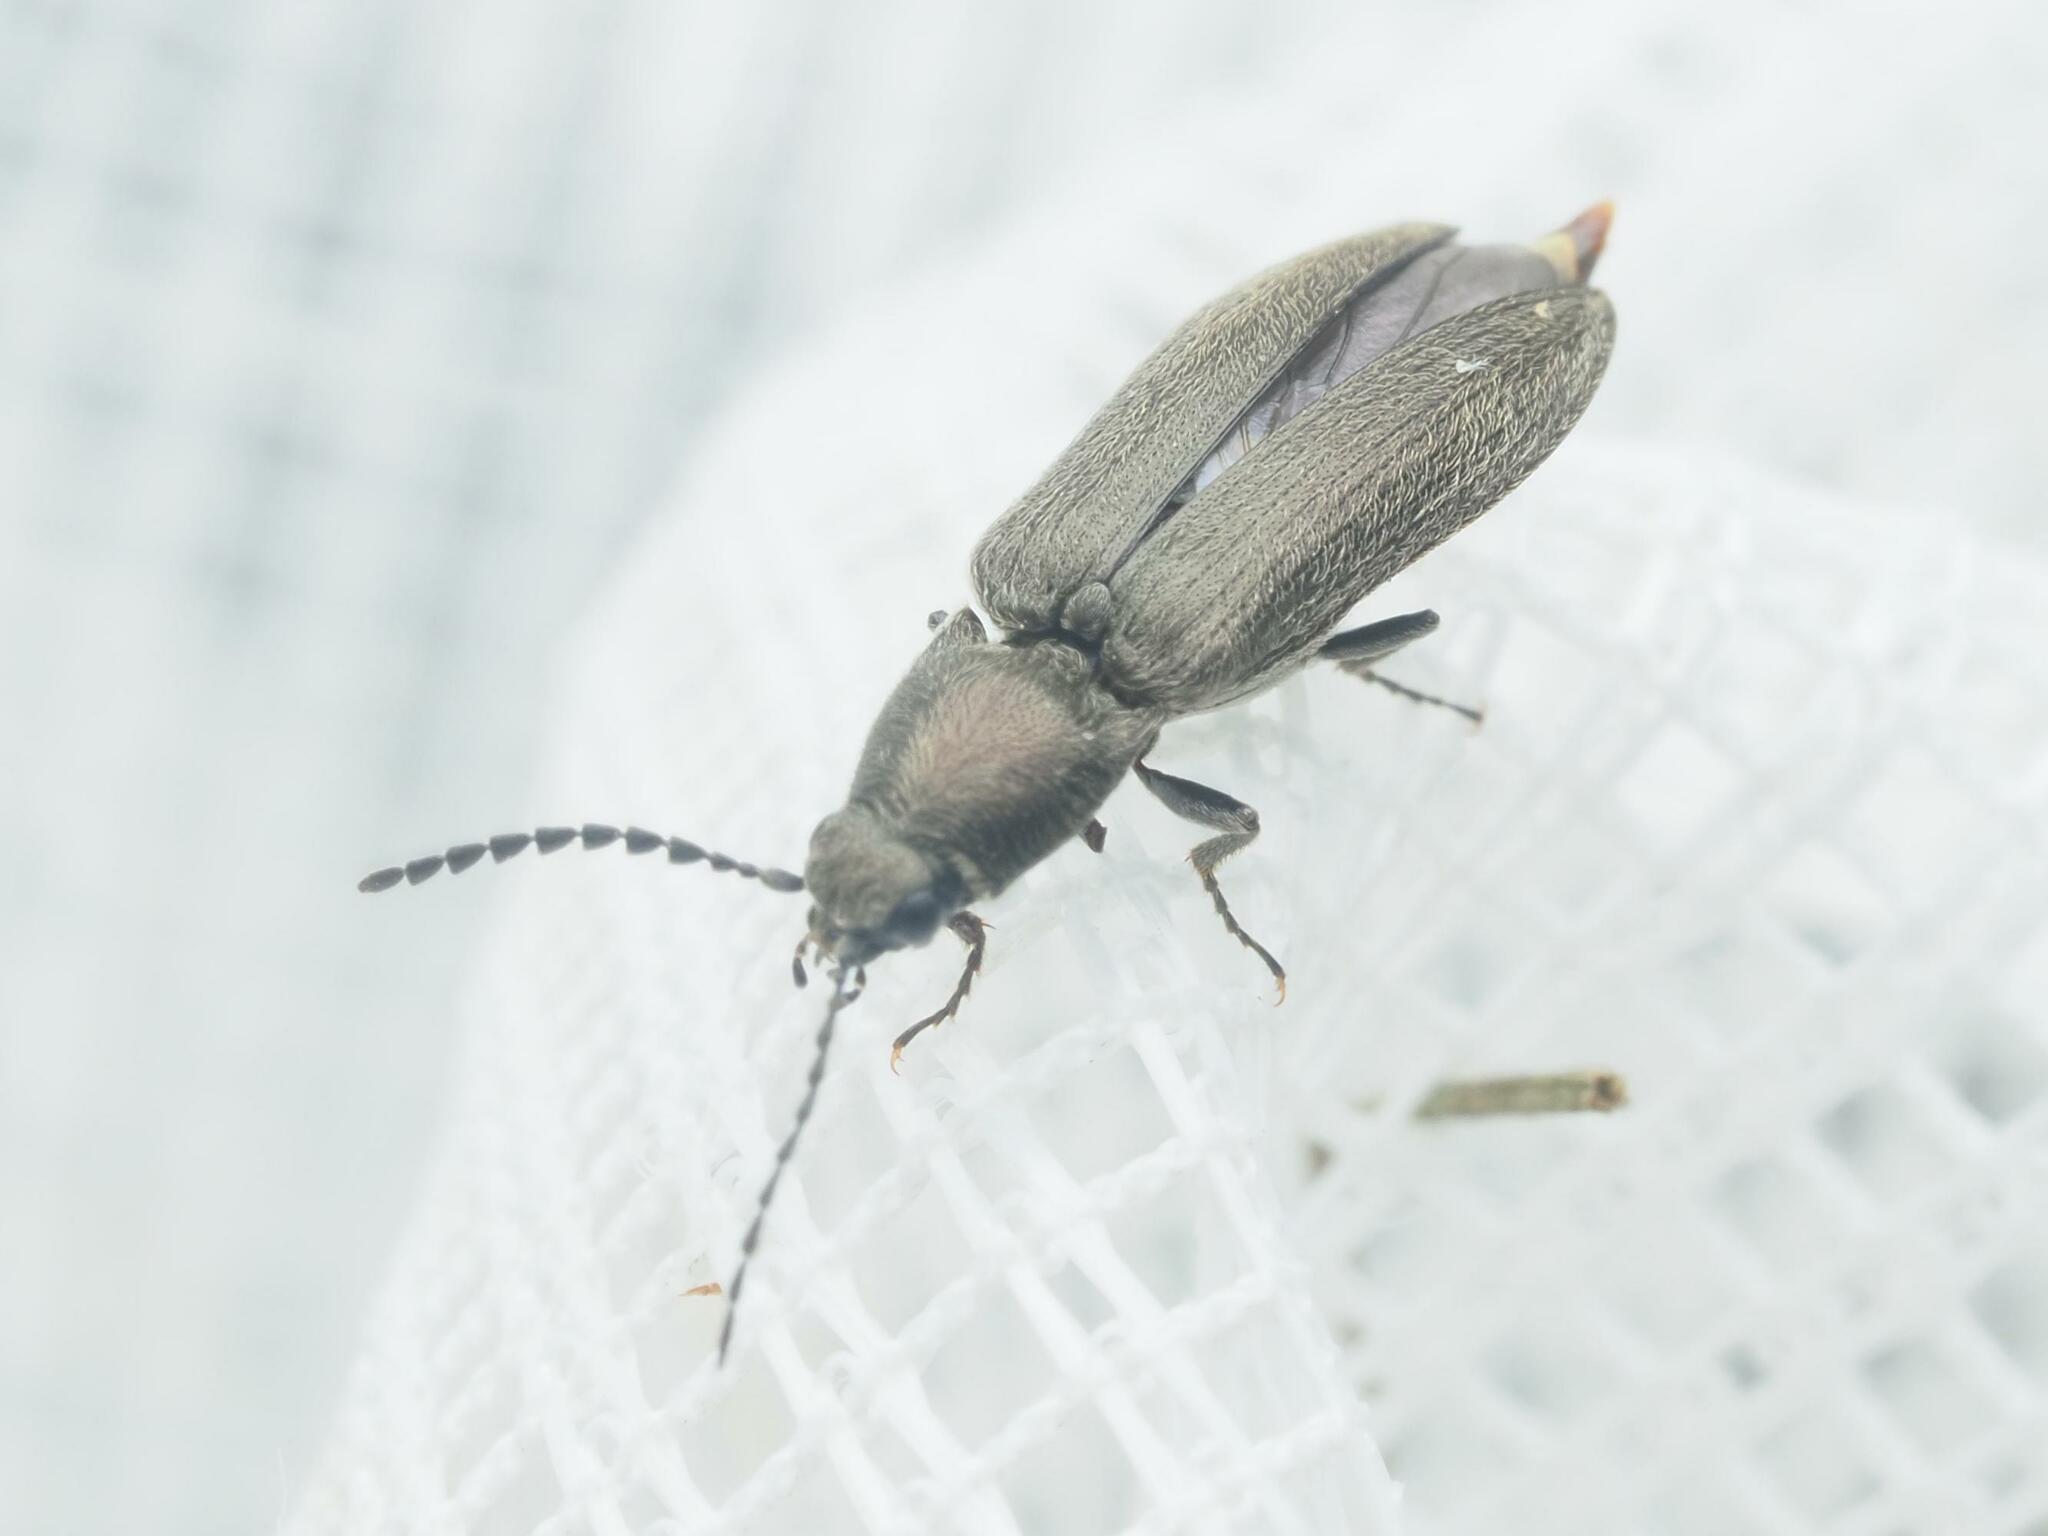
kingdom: Animalia
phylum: Arthropoda
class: Insecta
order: Coleoptera
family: Elateridae
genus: Cidnopus
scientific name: Cidnopus aeruginosus
